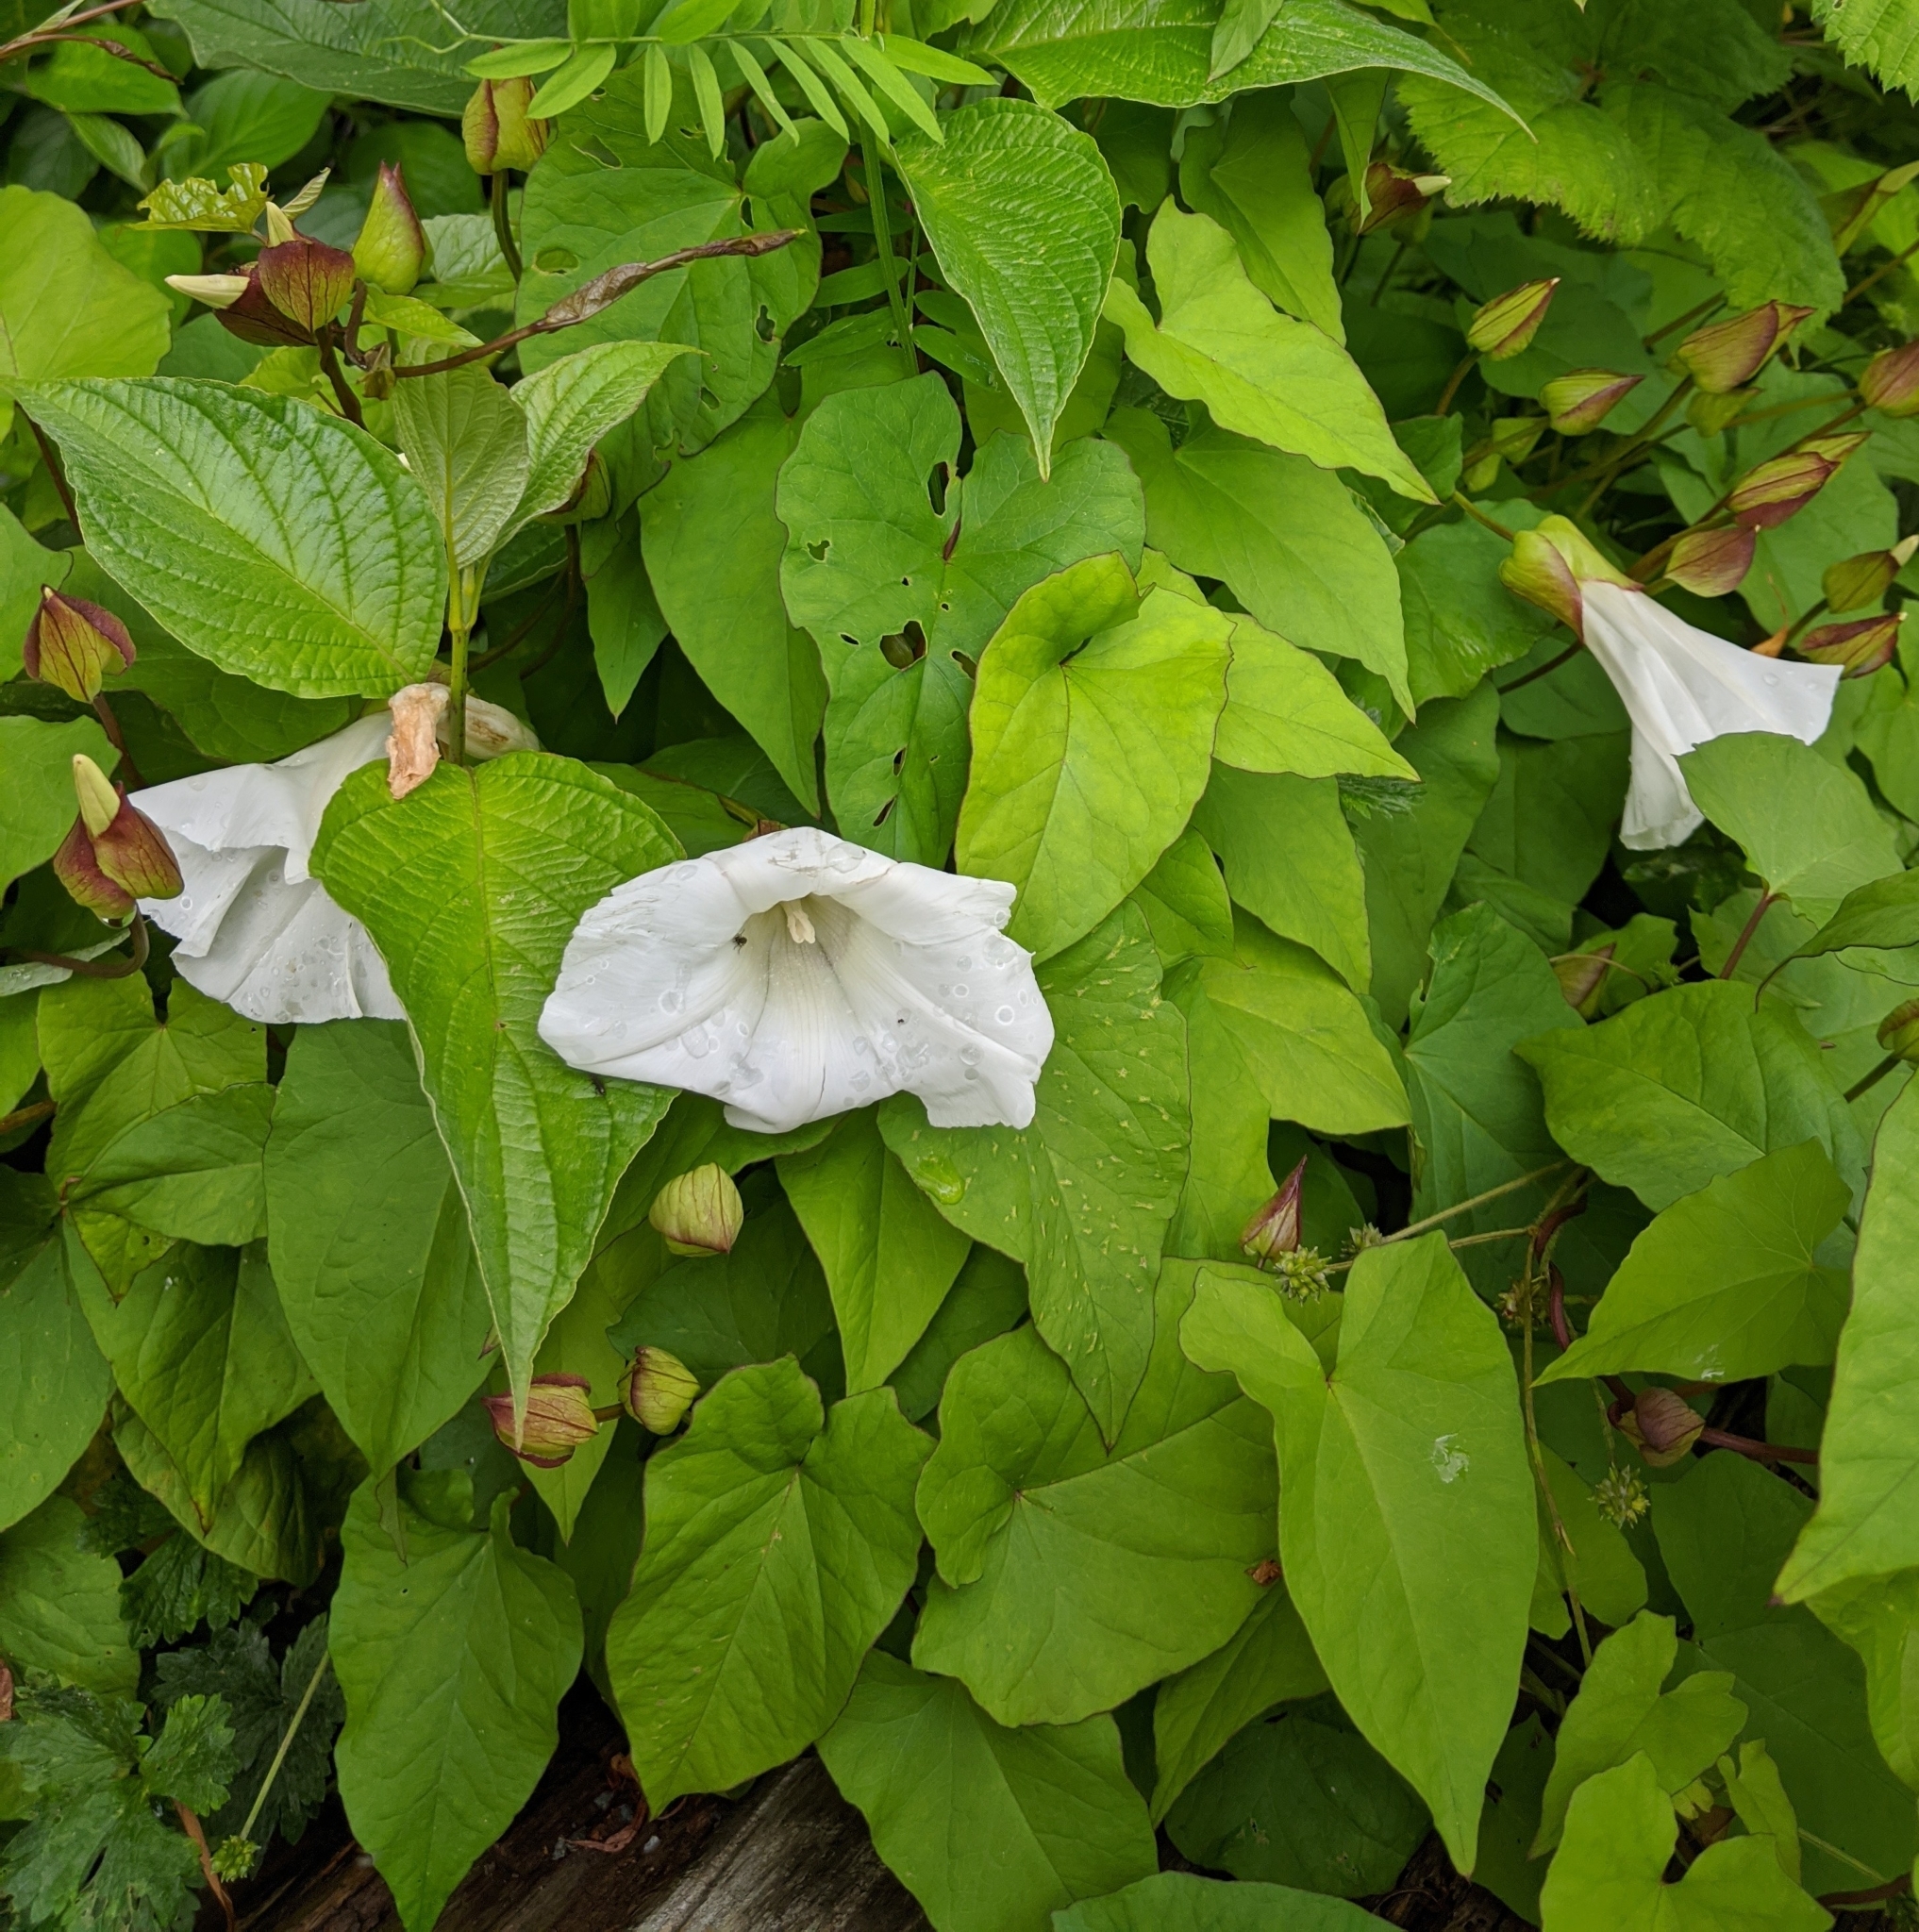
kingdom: Plantae
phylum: Tracheophyta
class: Magnoliopsida
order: Solanales
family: Convolvulaceae
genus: Calystegia
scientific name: Calystegia silvatica
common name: Large bindweed
